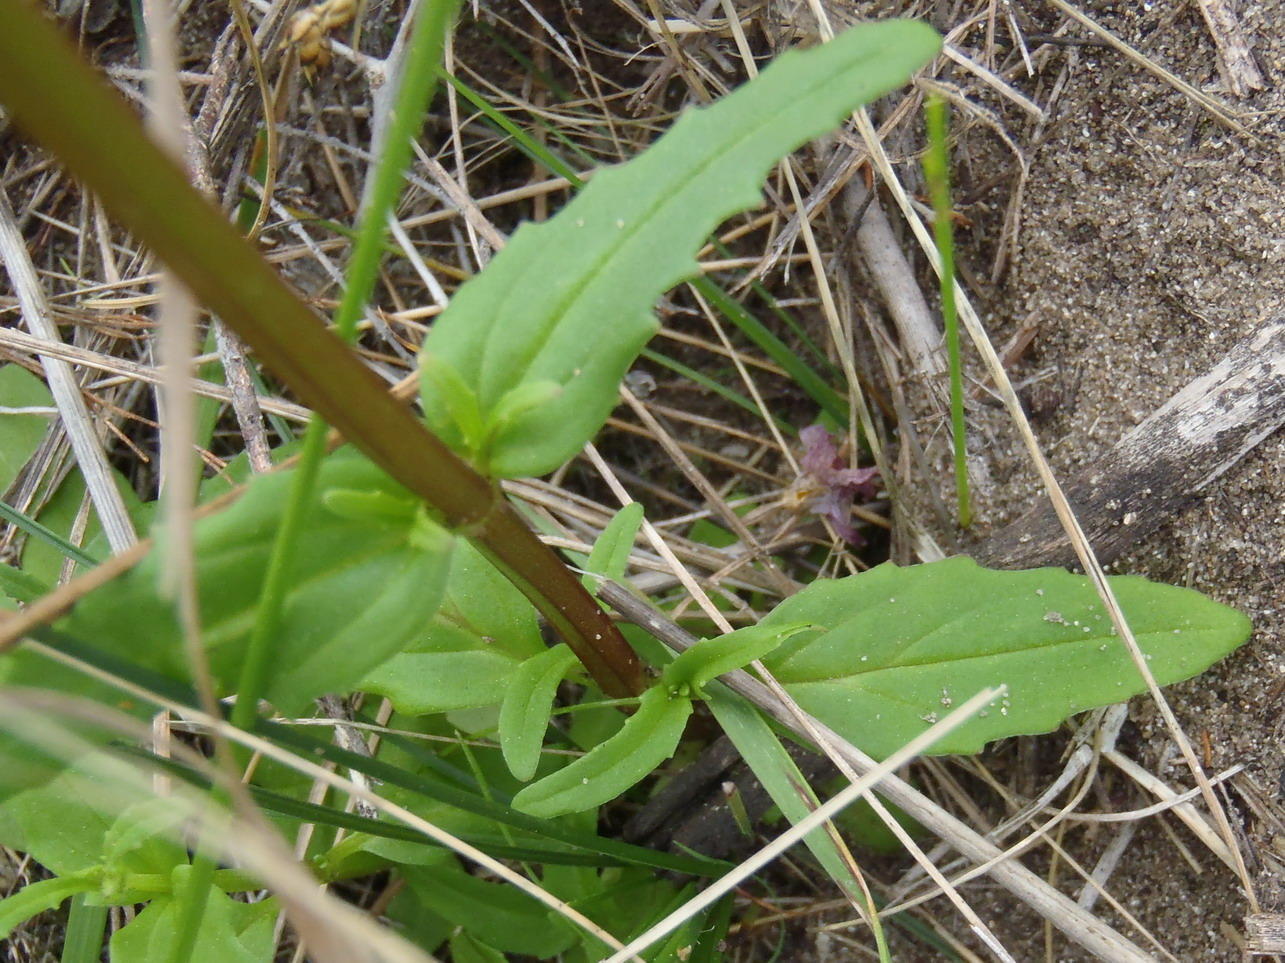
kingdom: Plantae
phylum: Tracheophyta
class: Magnoliopsida
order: Lamiales
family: Scrophulariaceae
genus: Nemesia
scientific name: Nemesia affinis
